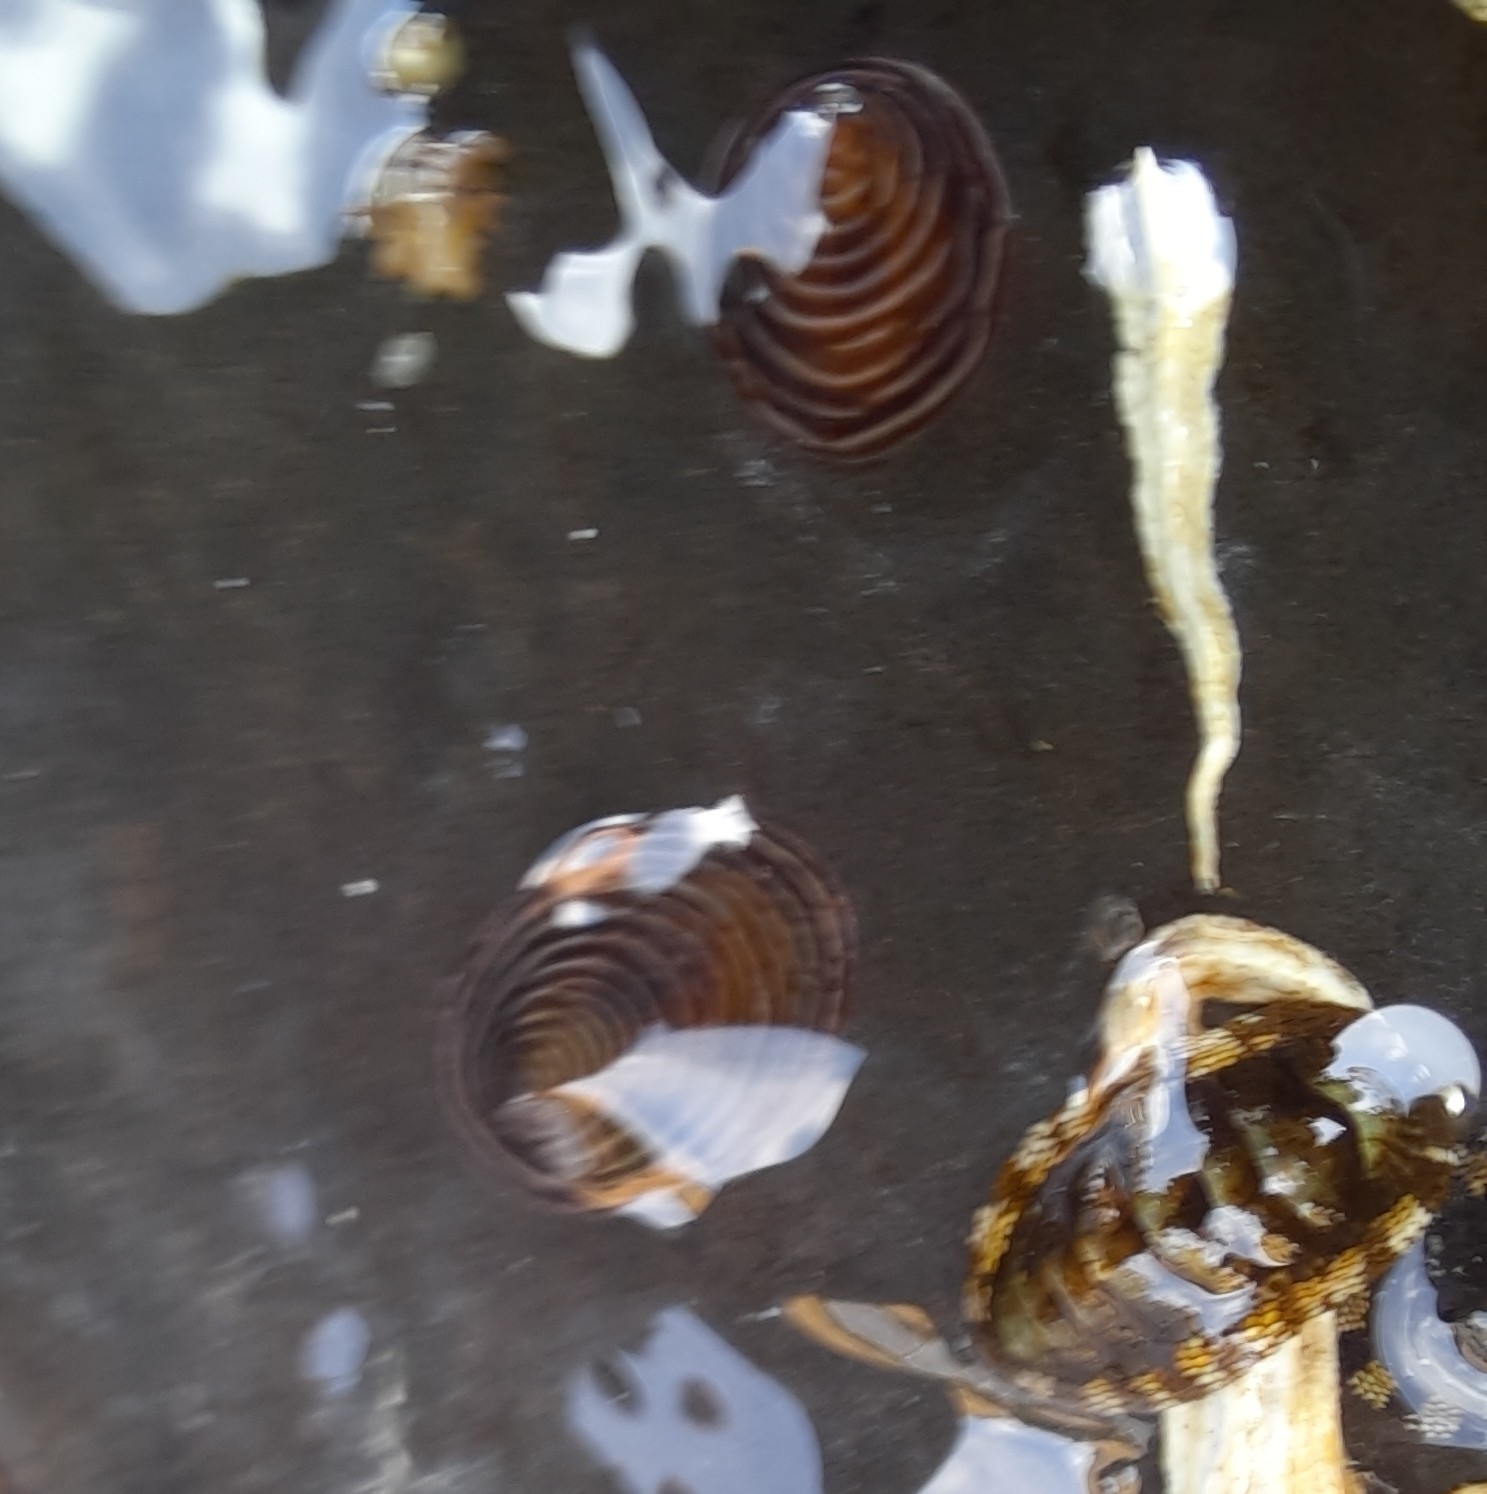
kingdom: Animalia
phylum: Mollusca
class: Gastropoda
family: Lottiidae
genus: Atalacmea
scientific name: Atalacmea fragilis
